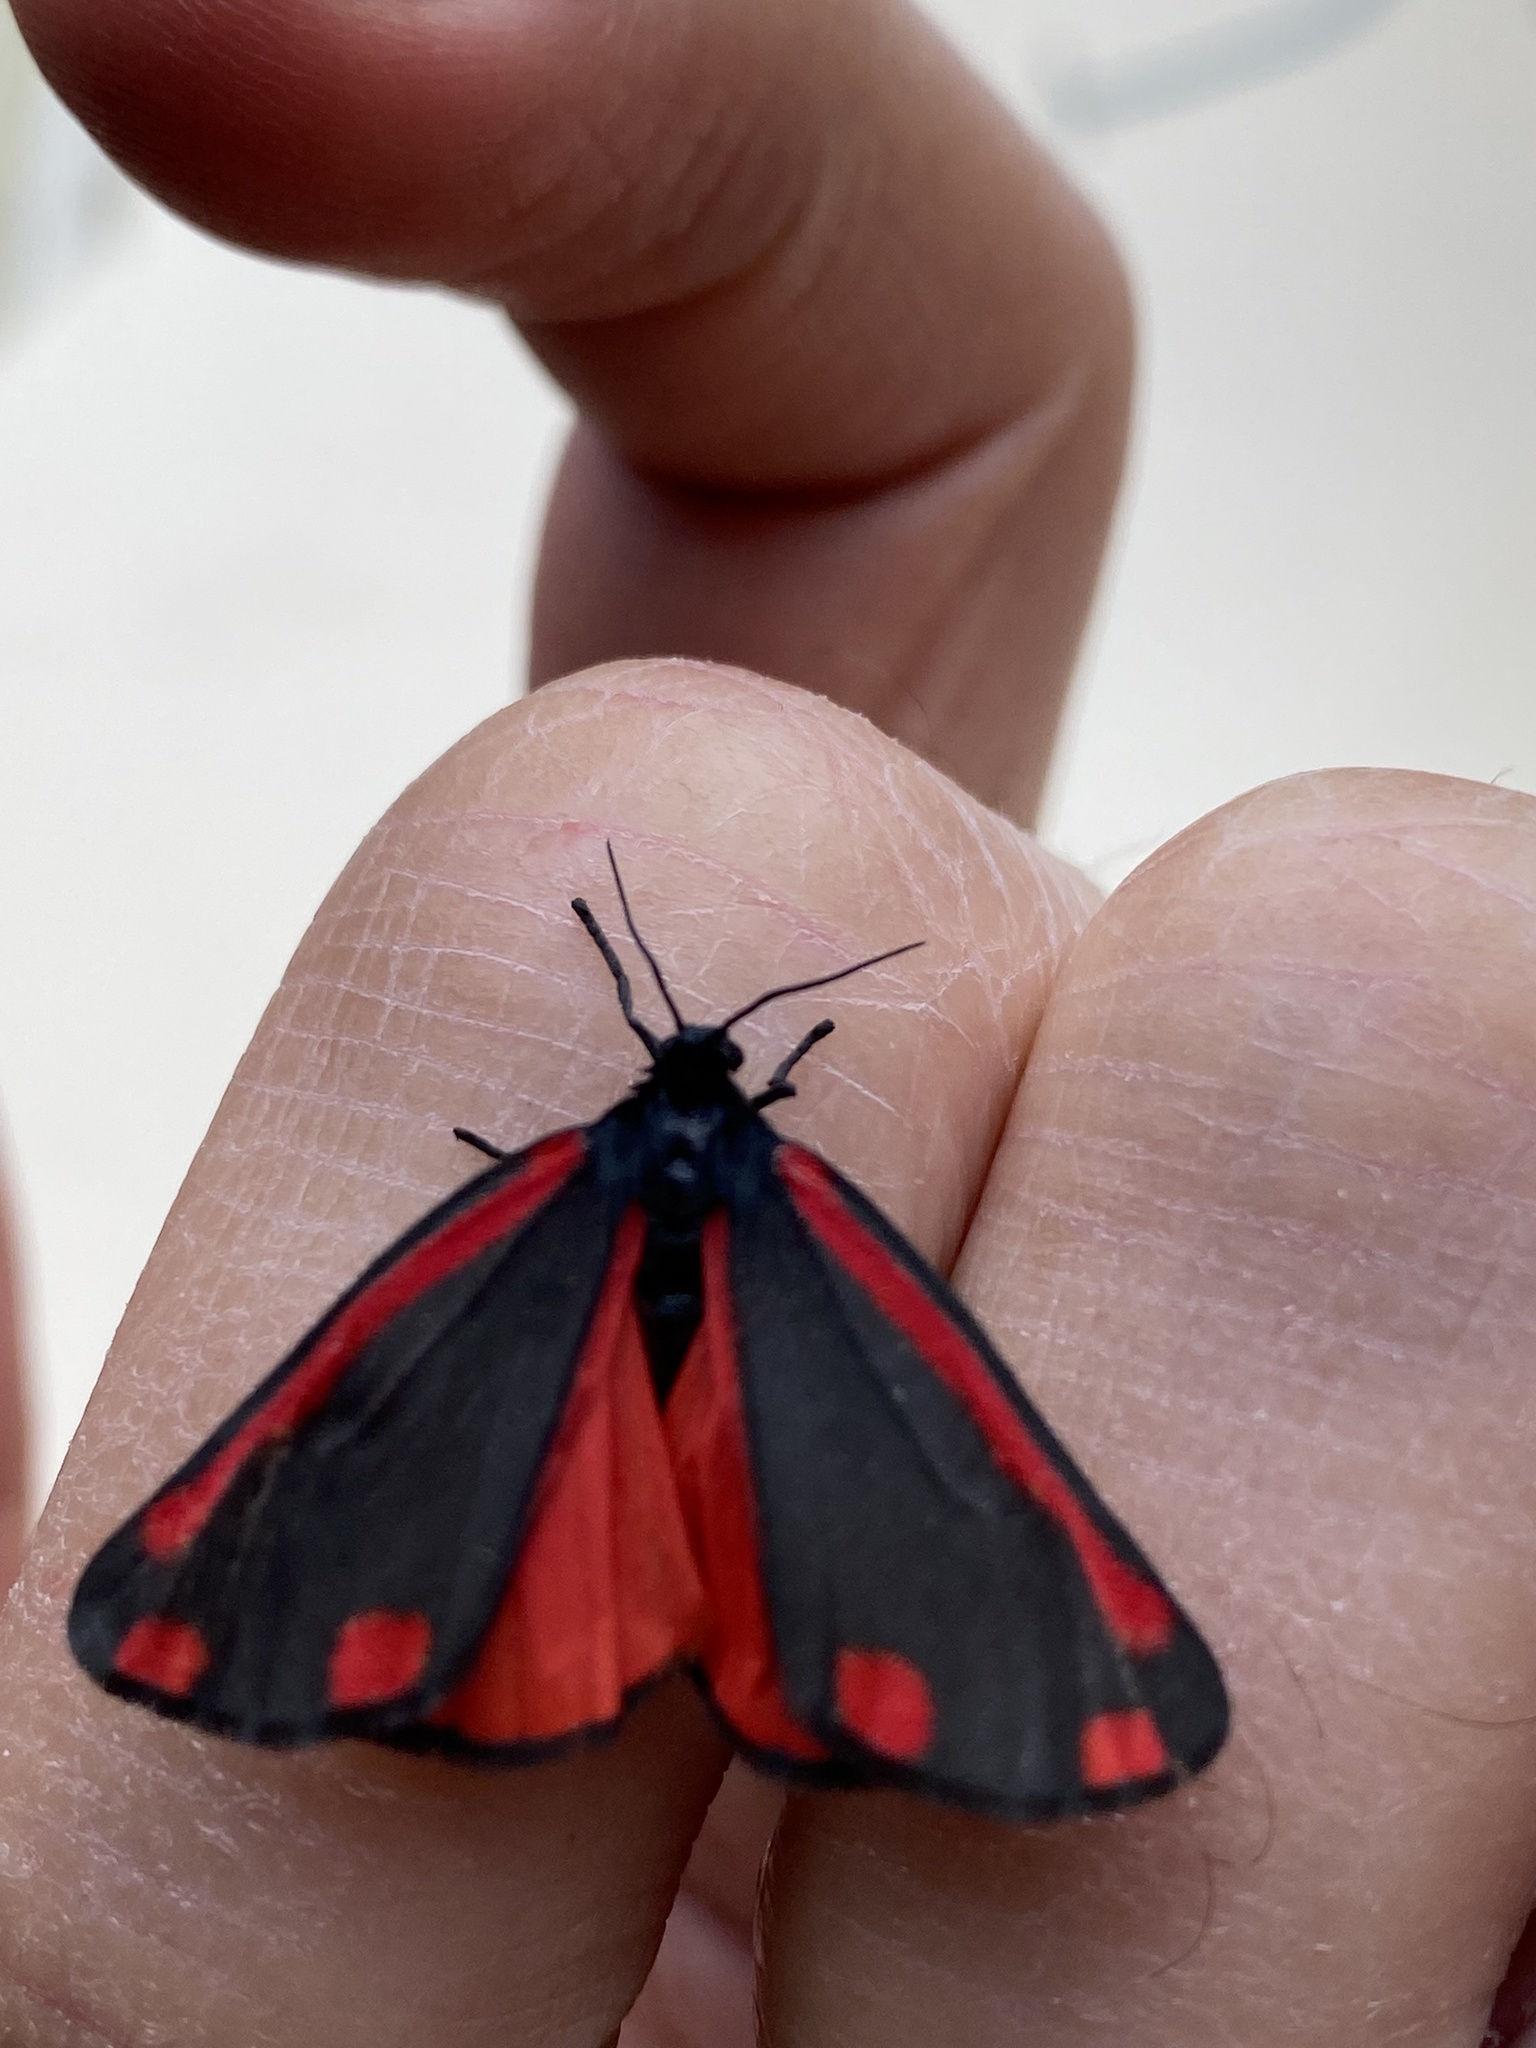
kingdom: Animalia
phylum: Arthropoda
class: Insecta
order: Lepidoptera
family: Erebidae
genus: Tyria
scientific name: Tyria jacobaeae
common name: Cinnabar
